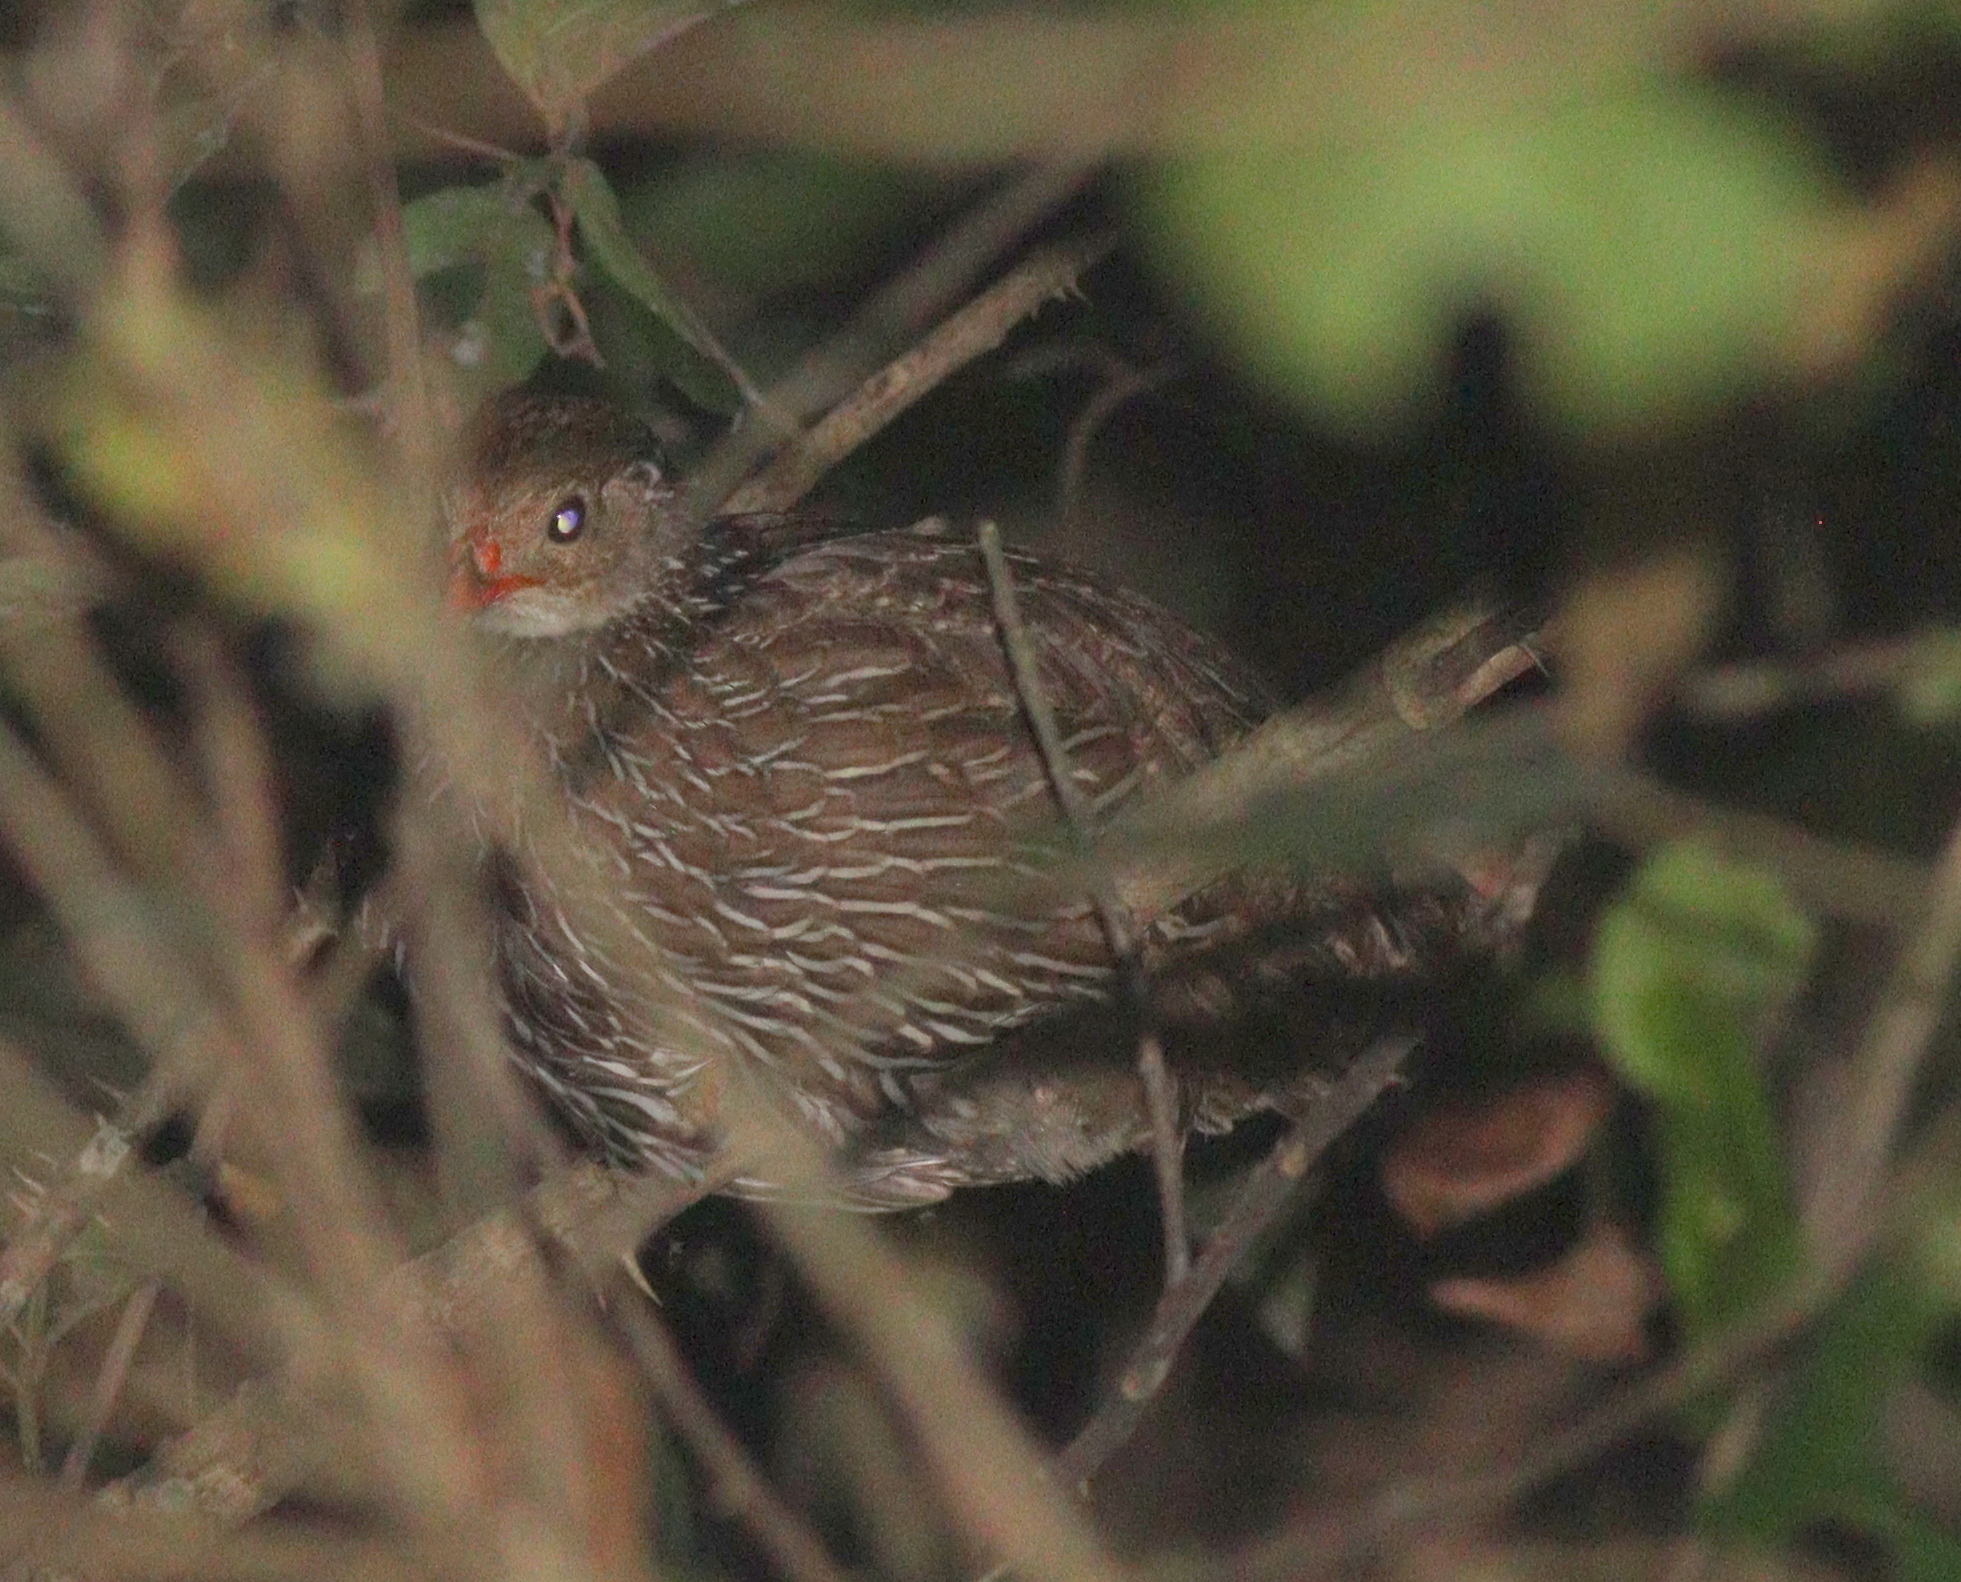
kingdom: Animalia
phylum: Chordata
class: Aves
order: Galliformes
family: Phasianidae
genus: Pternistis
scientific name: Pternistis ahantensis
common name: Ahanta francolin
